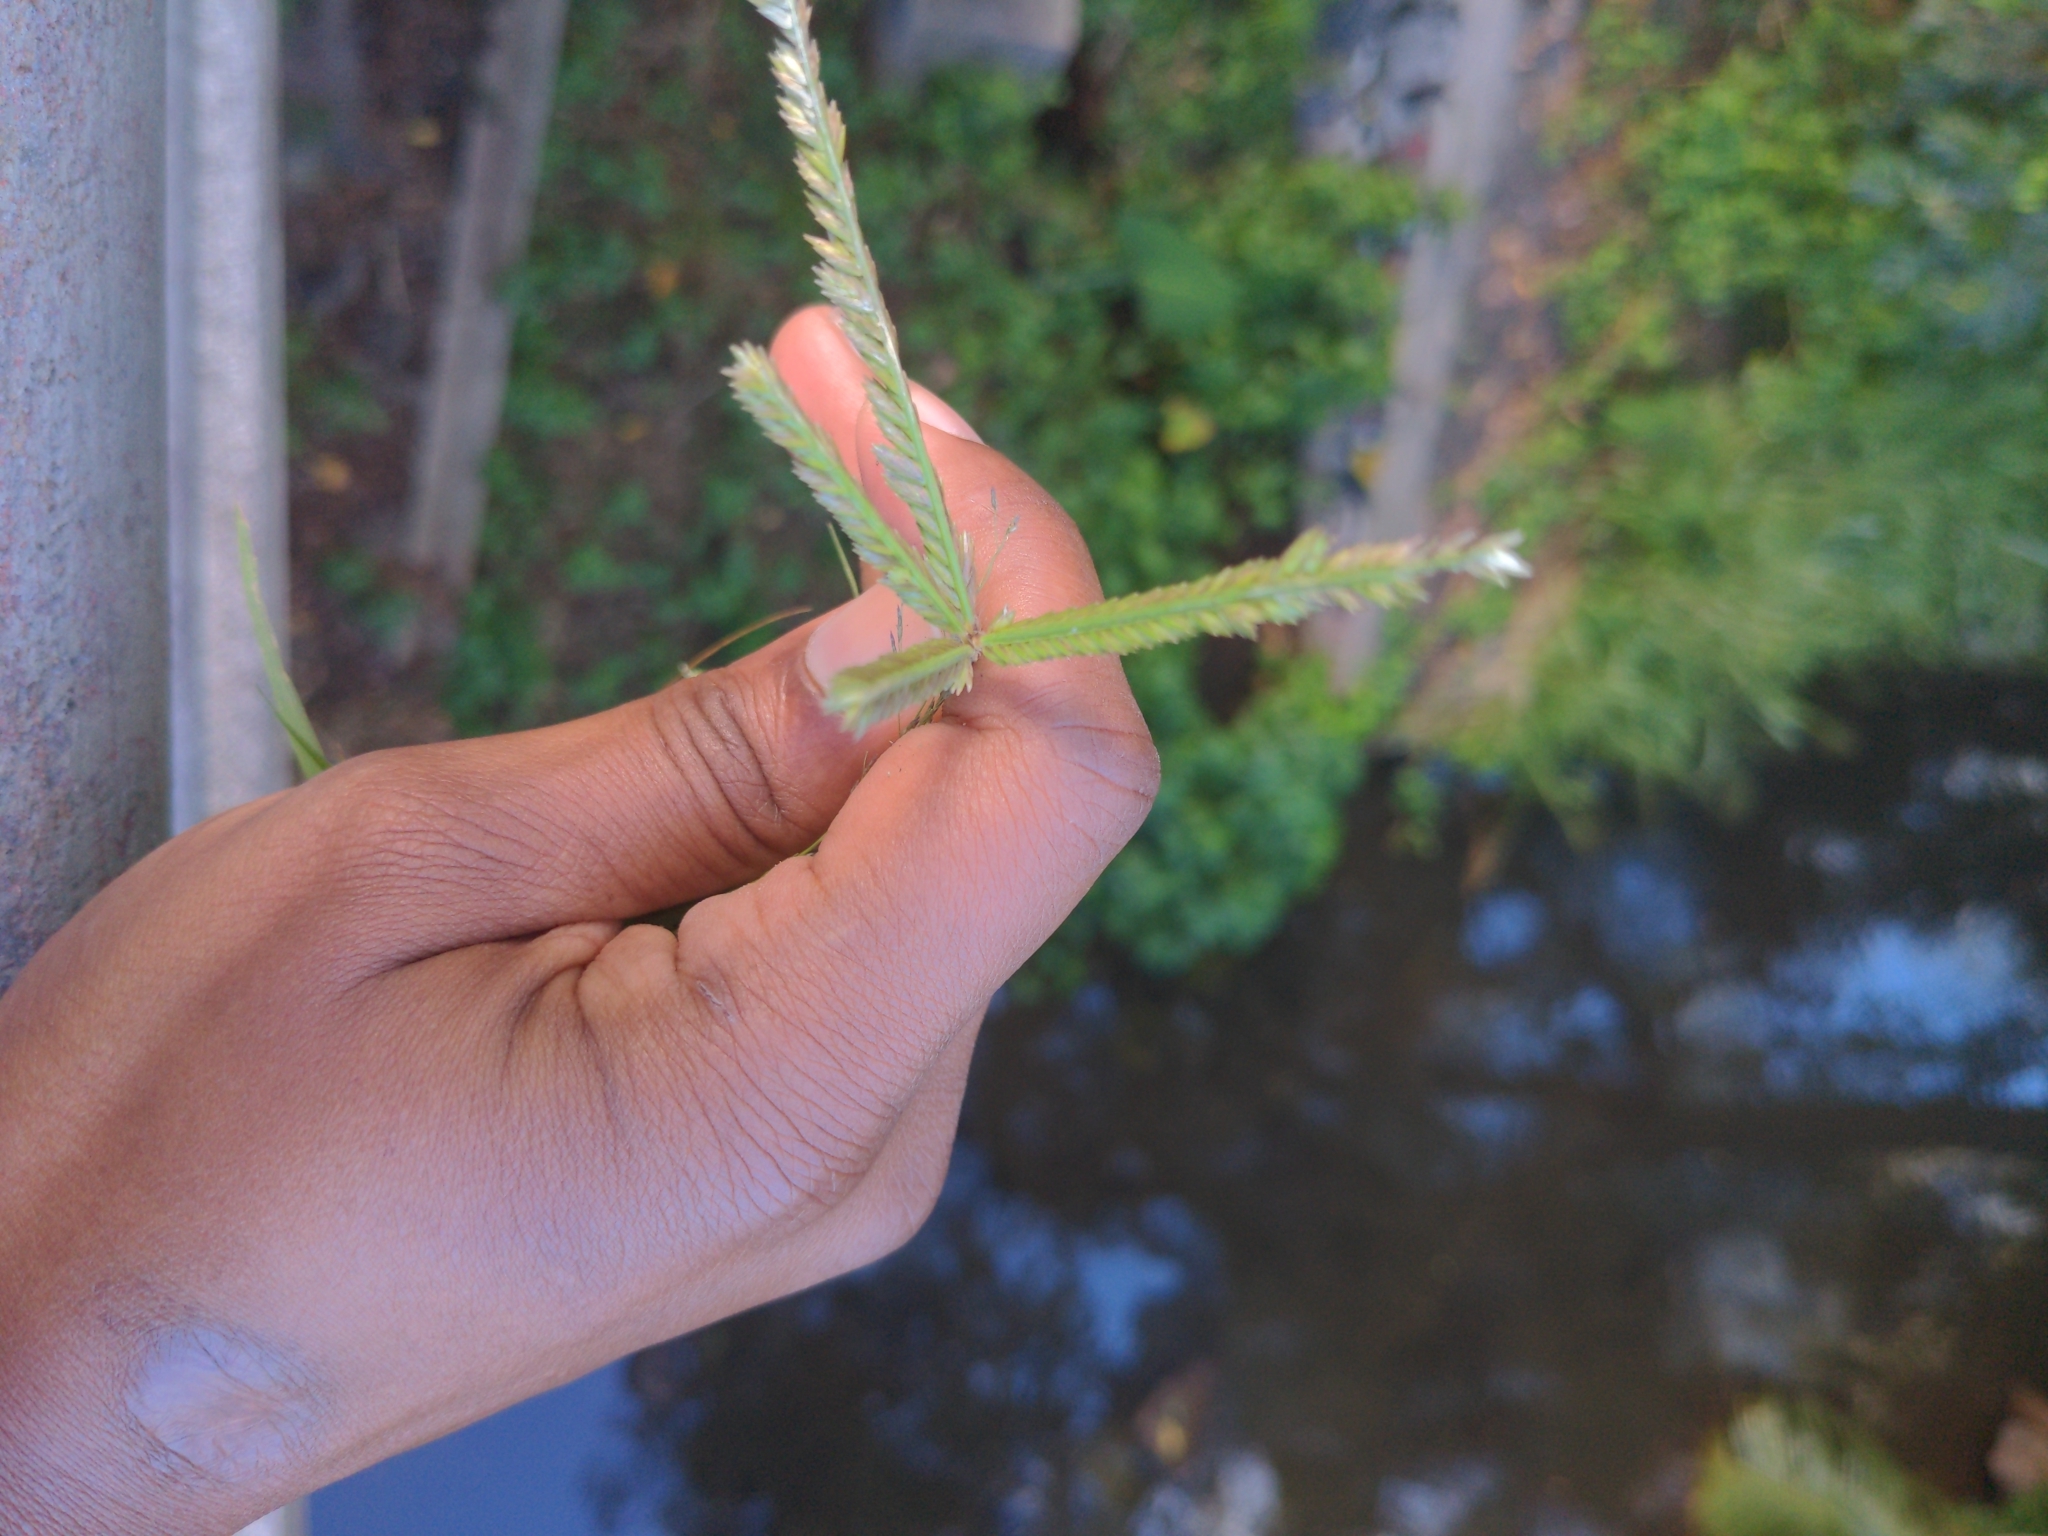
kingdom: Plantae
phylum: Tracheophyta
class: Liliopsida
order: Poales
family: Poaceae
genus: Eleusine
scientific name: Eleusine indica
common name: Yard-grass
